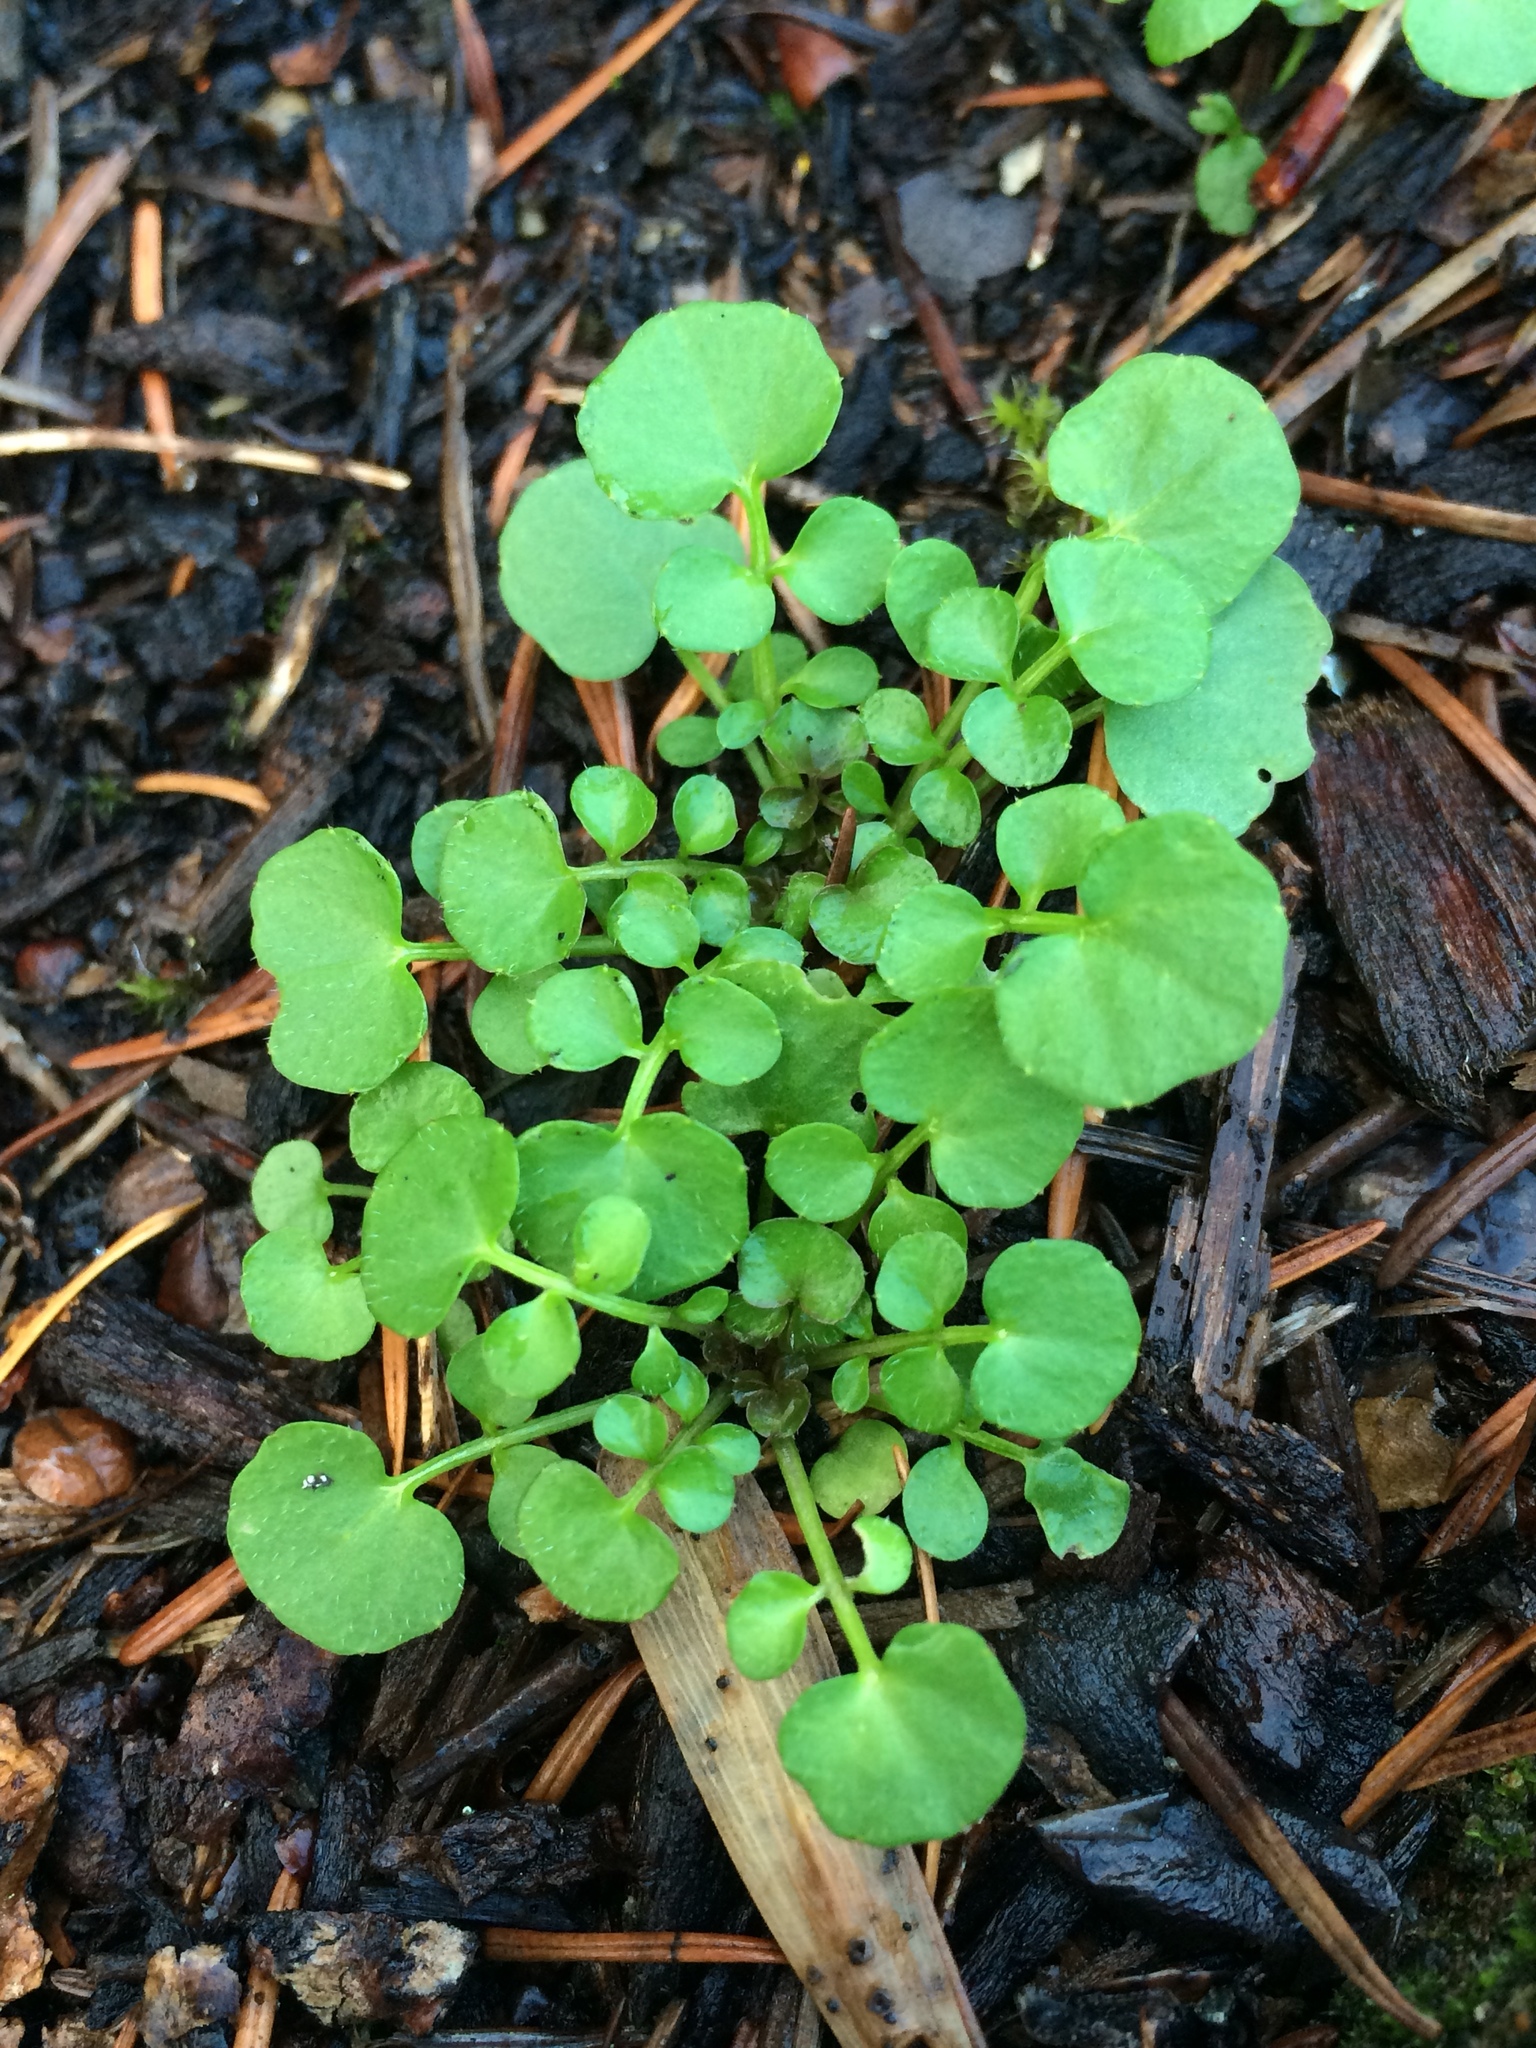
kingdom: Plantae
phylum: Tracheophyta
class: Magnoliopsida
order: Brassicales
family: Brassicaceae
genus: Cardamine
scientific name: Cardamine hirsuta
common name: Hairy bittercress
